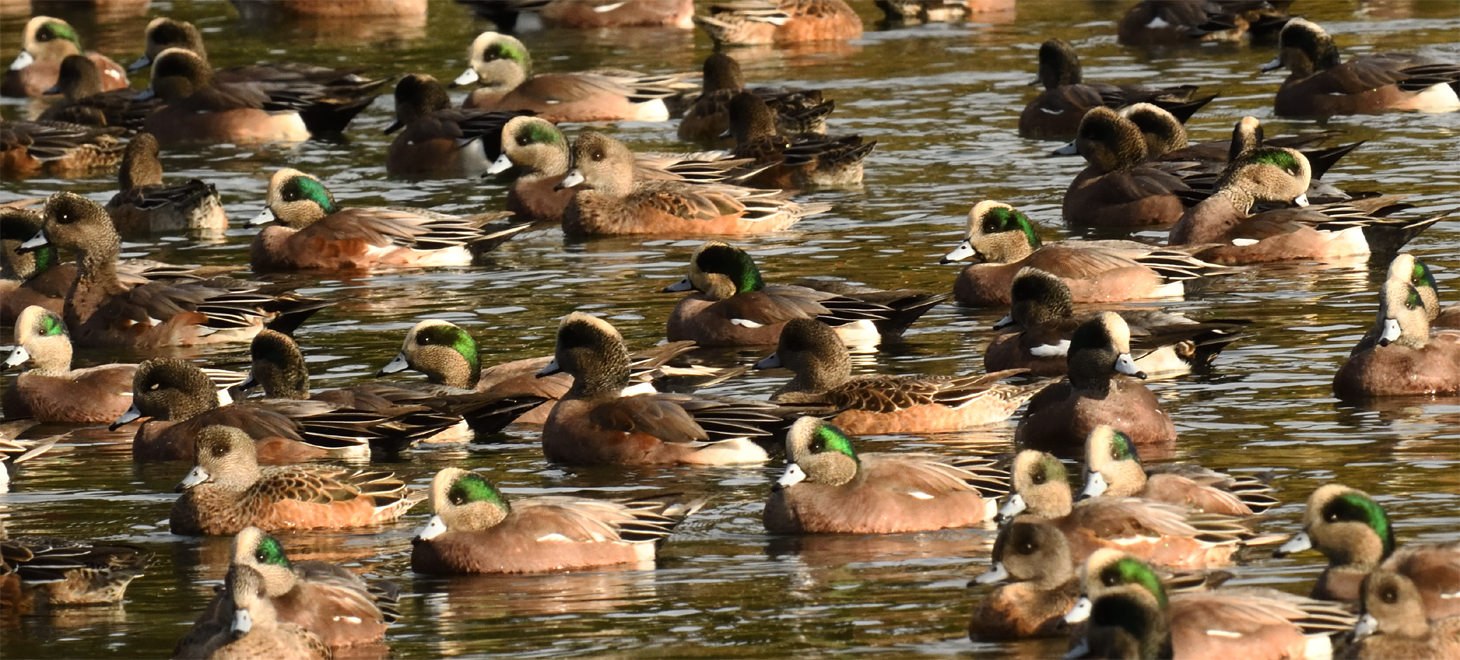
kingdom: Animalia
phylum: Chordata
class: Aves
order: Anseriformes
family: Anatidae
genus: Mareca
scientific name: Mareca americana
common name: American wigeon
